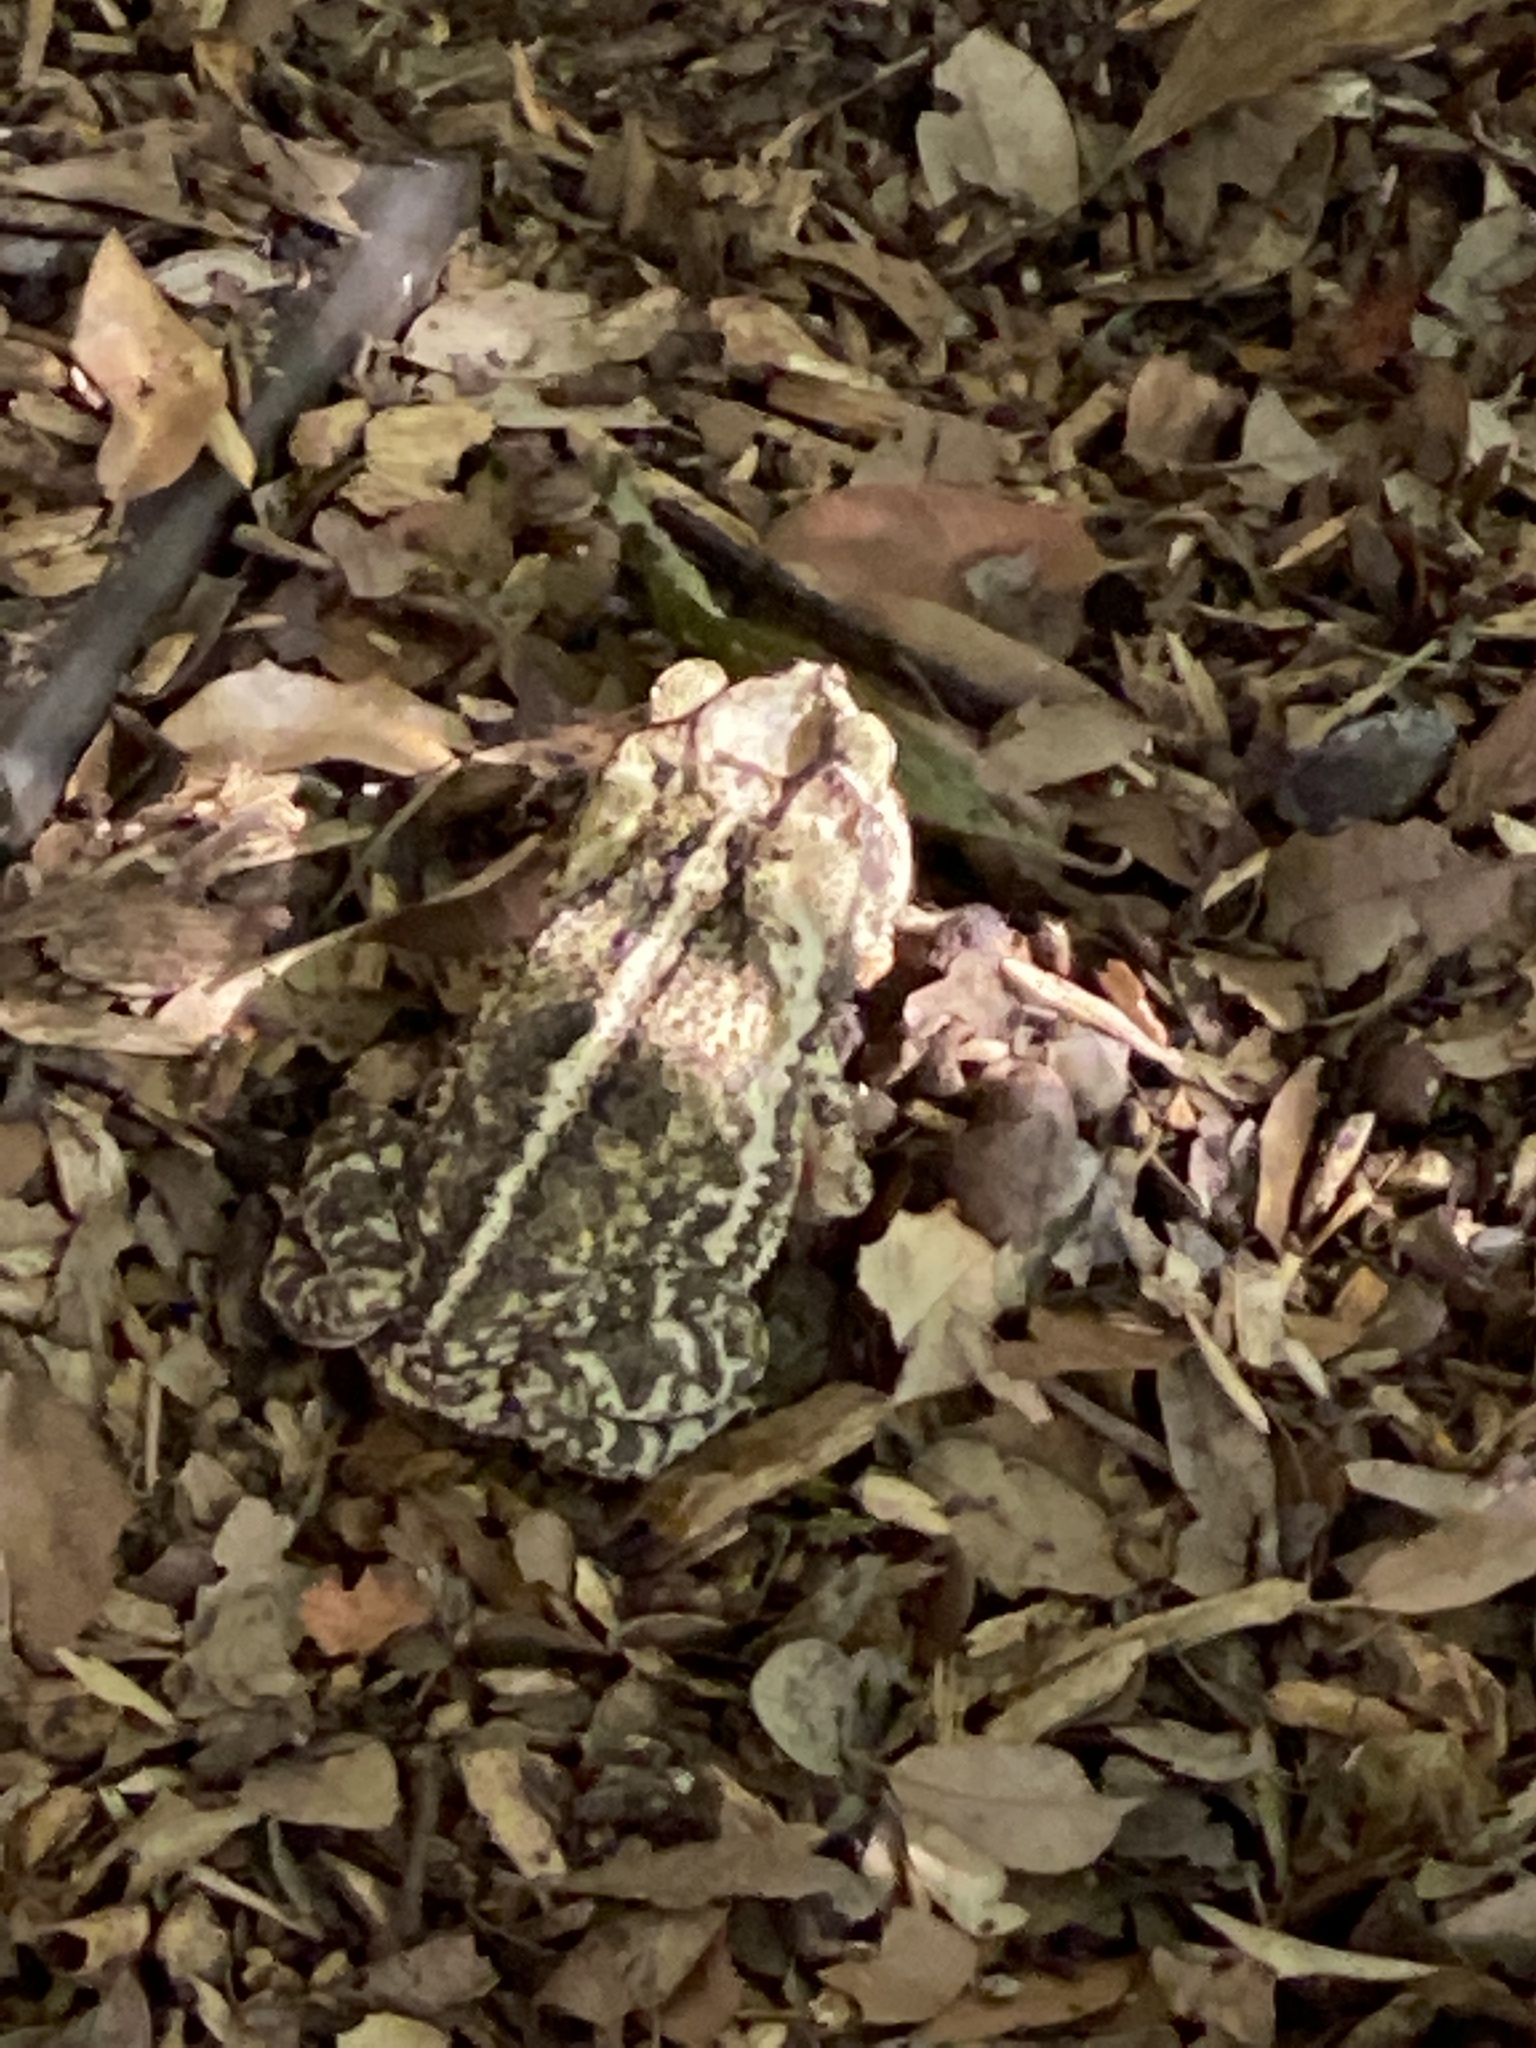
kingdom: Animalia
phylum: Chordata
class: Amphibia
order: Anura
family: Bufonidae
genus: Incilius
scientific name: Incilius nebulifer
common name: Gulf coast toad
